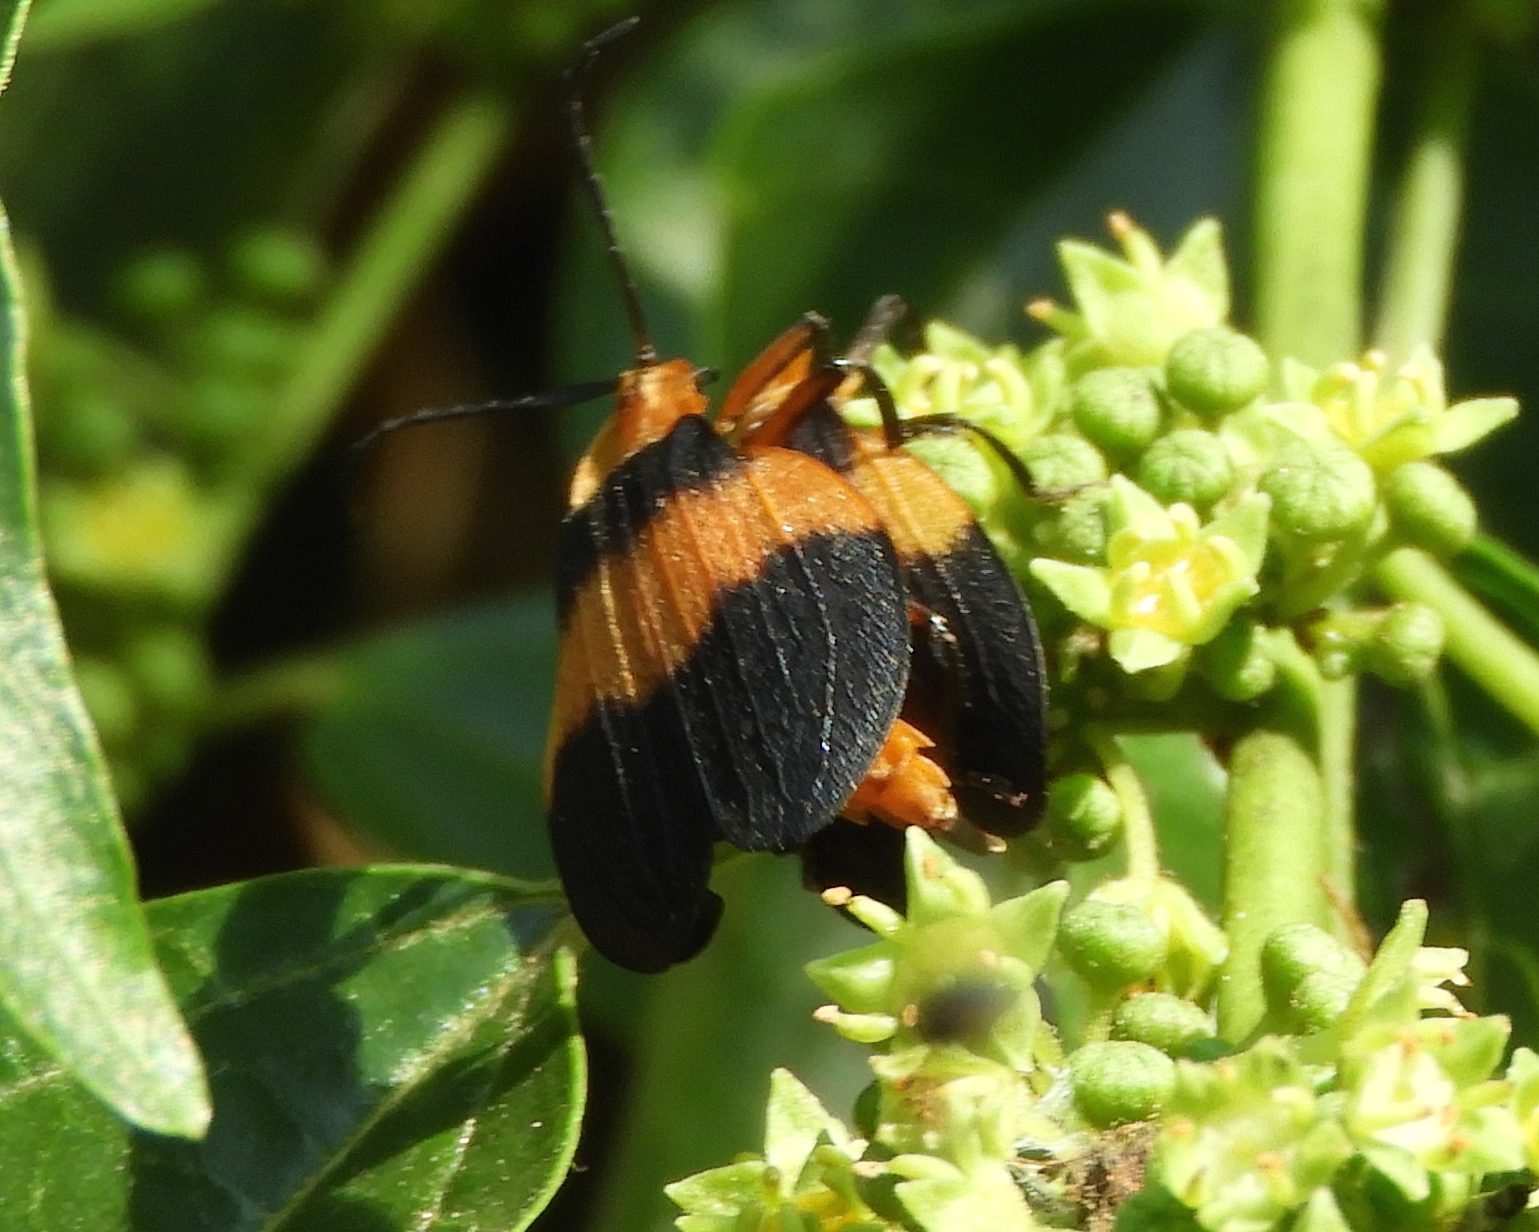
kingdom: Animalia
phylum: Arthropoda
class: Insecta
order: Coleoptera
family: Lycidae
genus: Lycus
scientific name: Lycus
